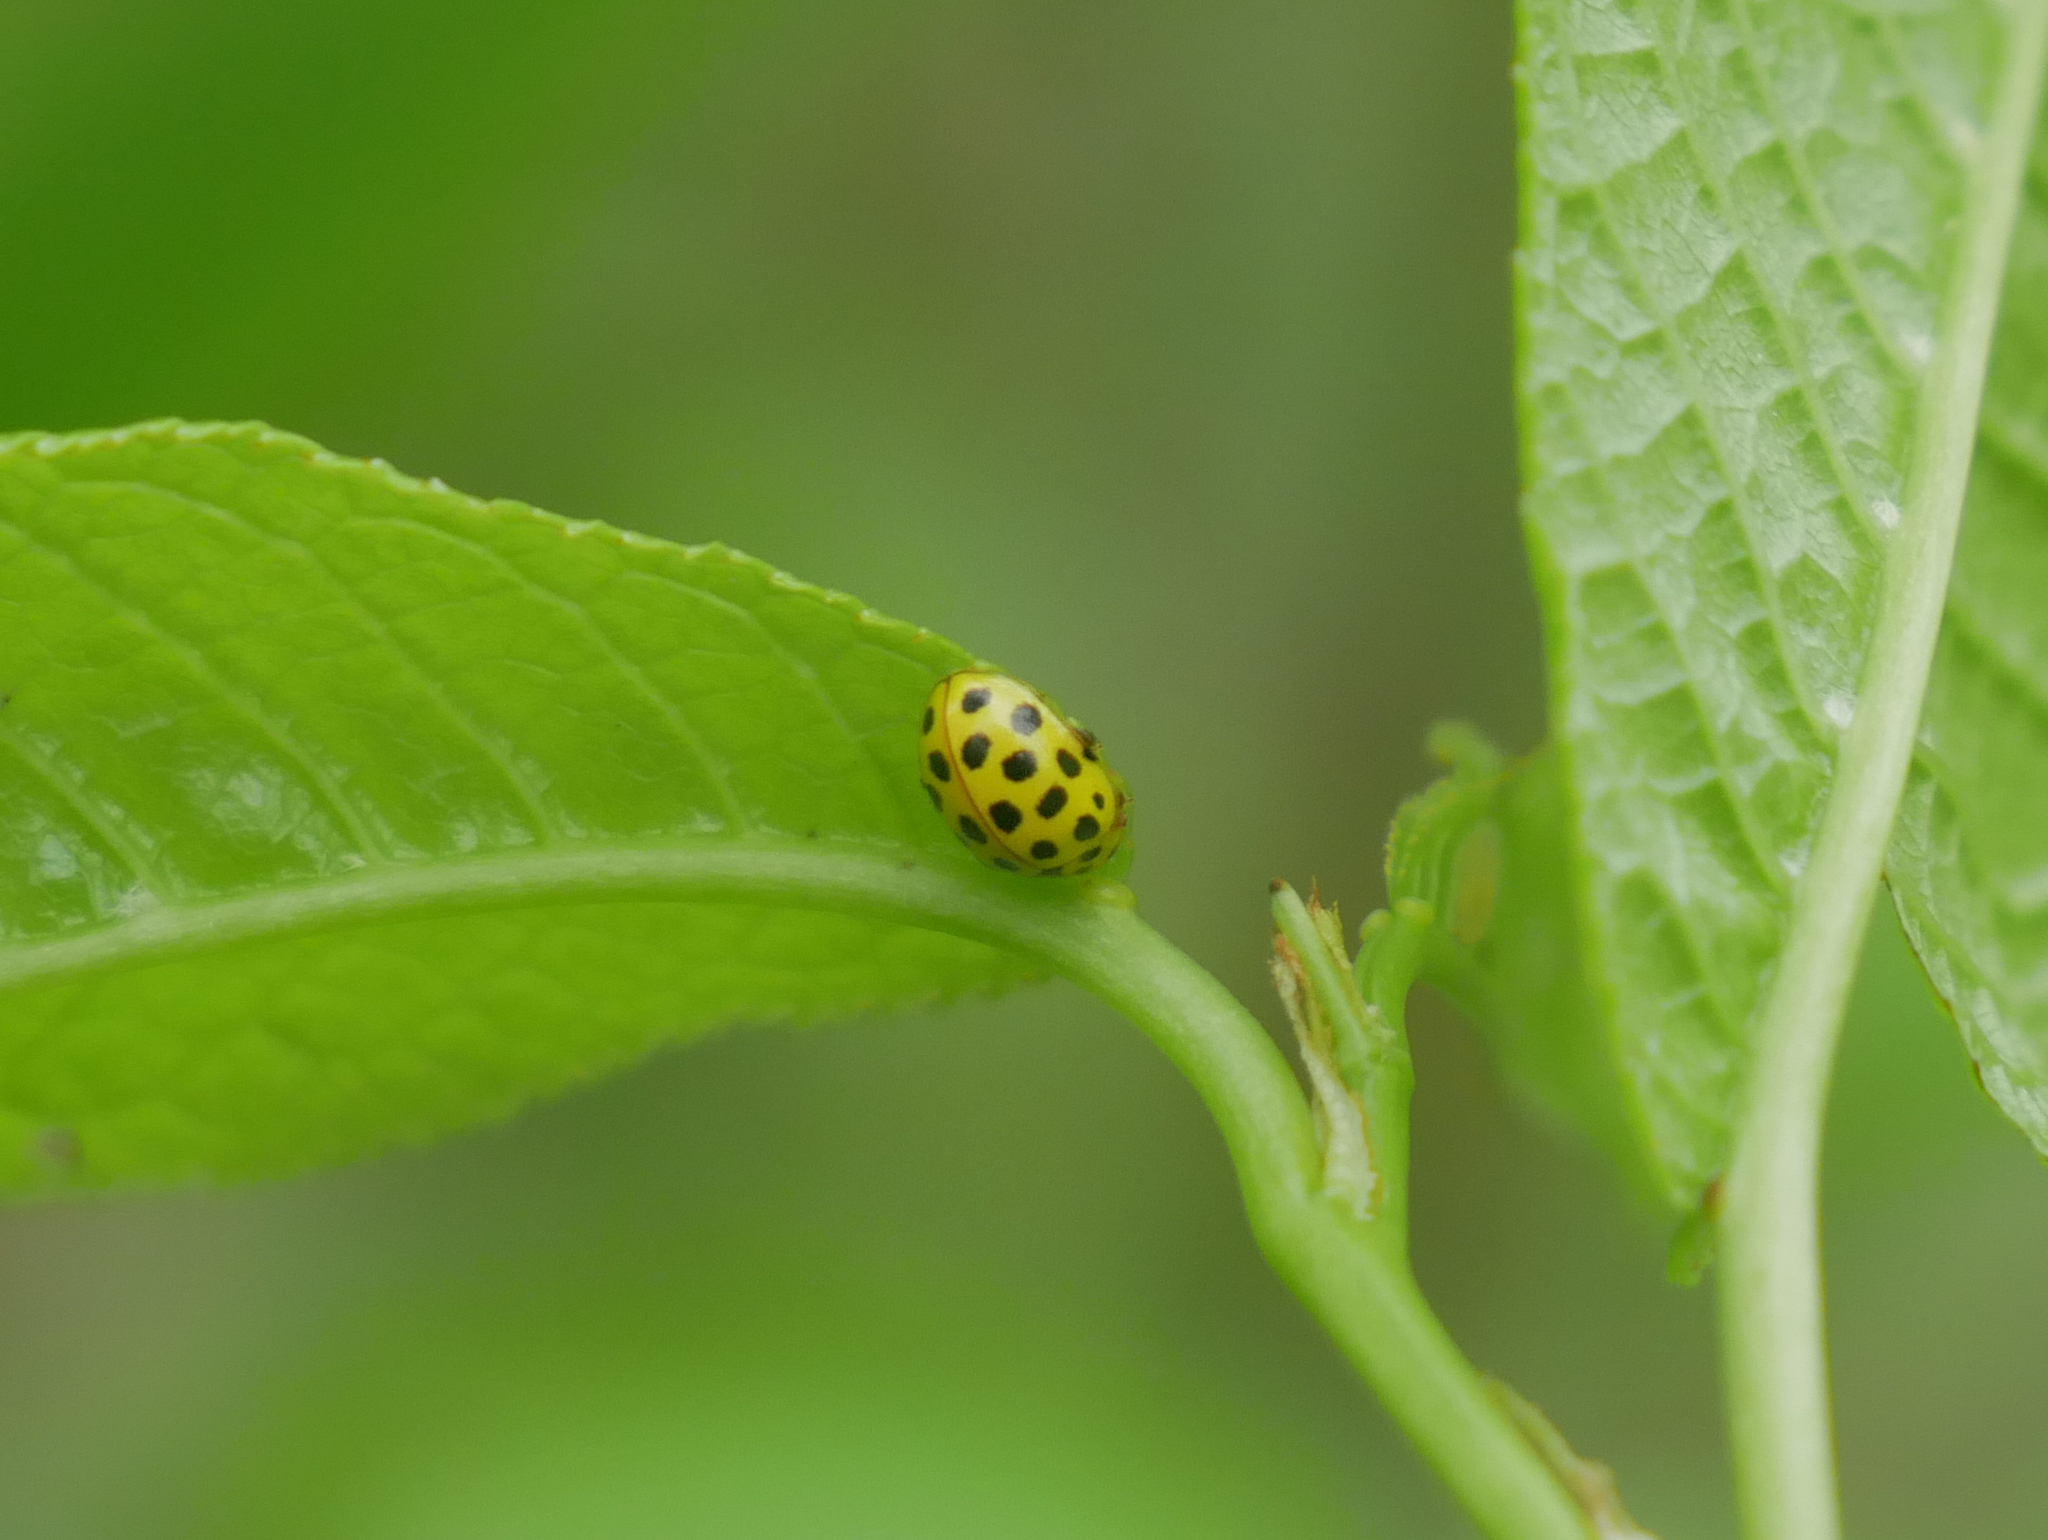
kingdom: Animalia
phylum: Arthropoda
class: Insecta
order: Coleoptera
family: Coccinellidae
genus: Psyllobora
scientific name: Psyllobora vigintiduopunctata
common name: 22-spot ladybird
